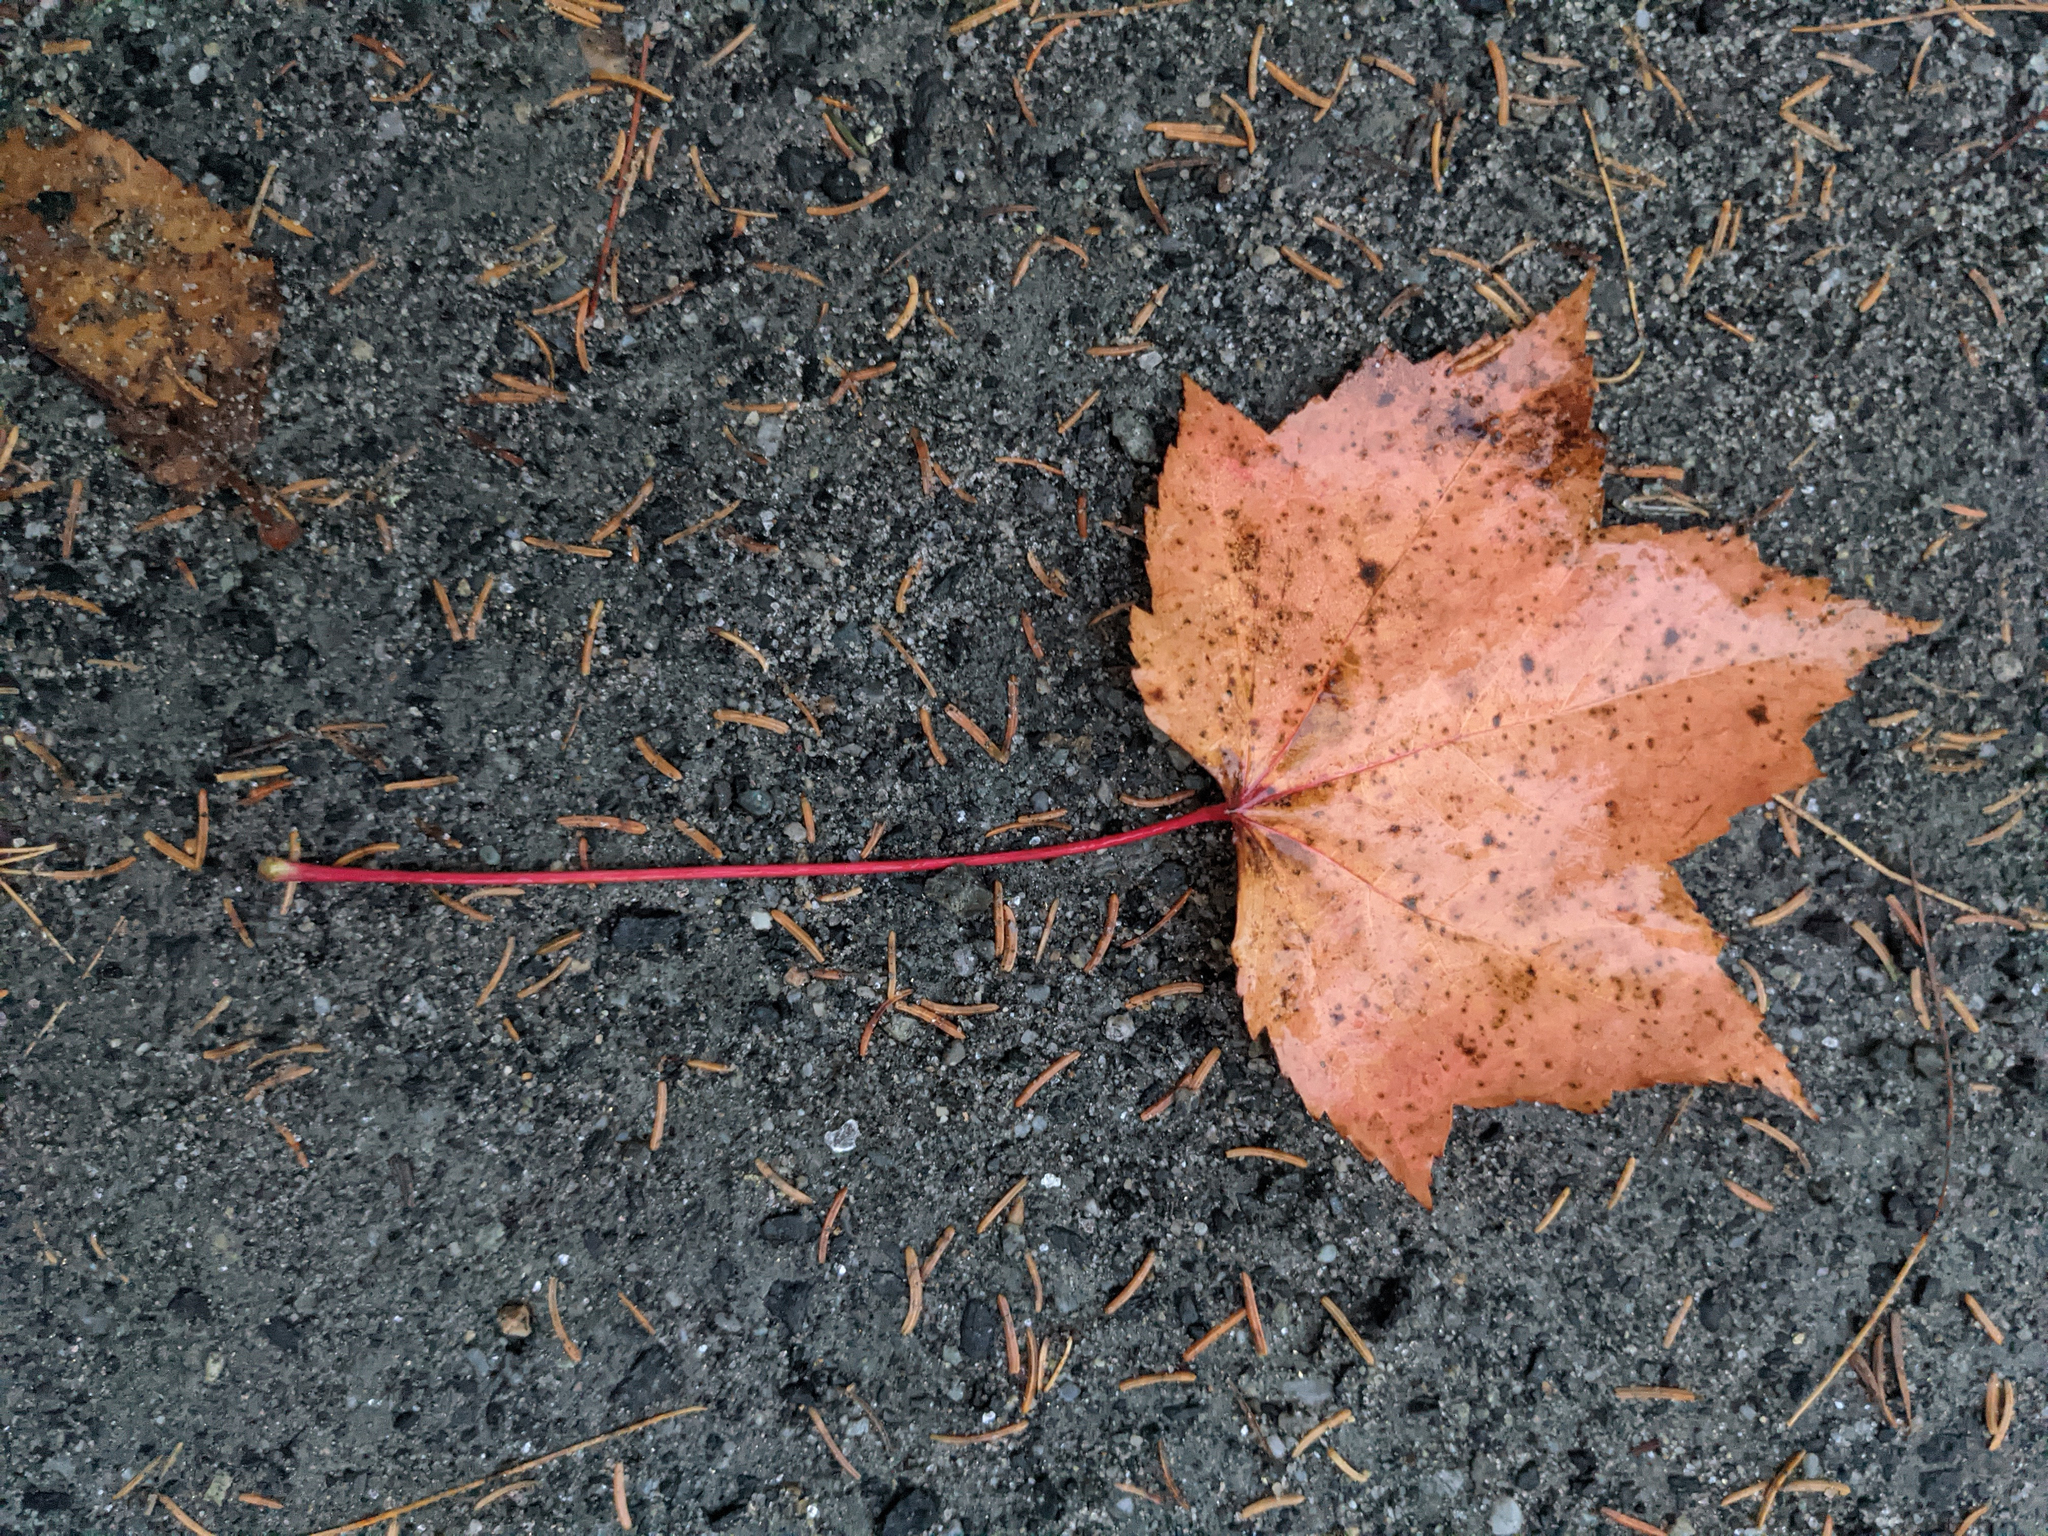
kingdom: Plantae
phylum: Tracheophyta
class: Magnoliopsida
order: Sapindales
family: Sapindaceae
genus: Acer
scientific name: Acer rubrum
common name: Red maple
